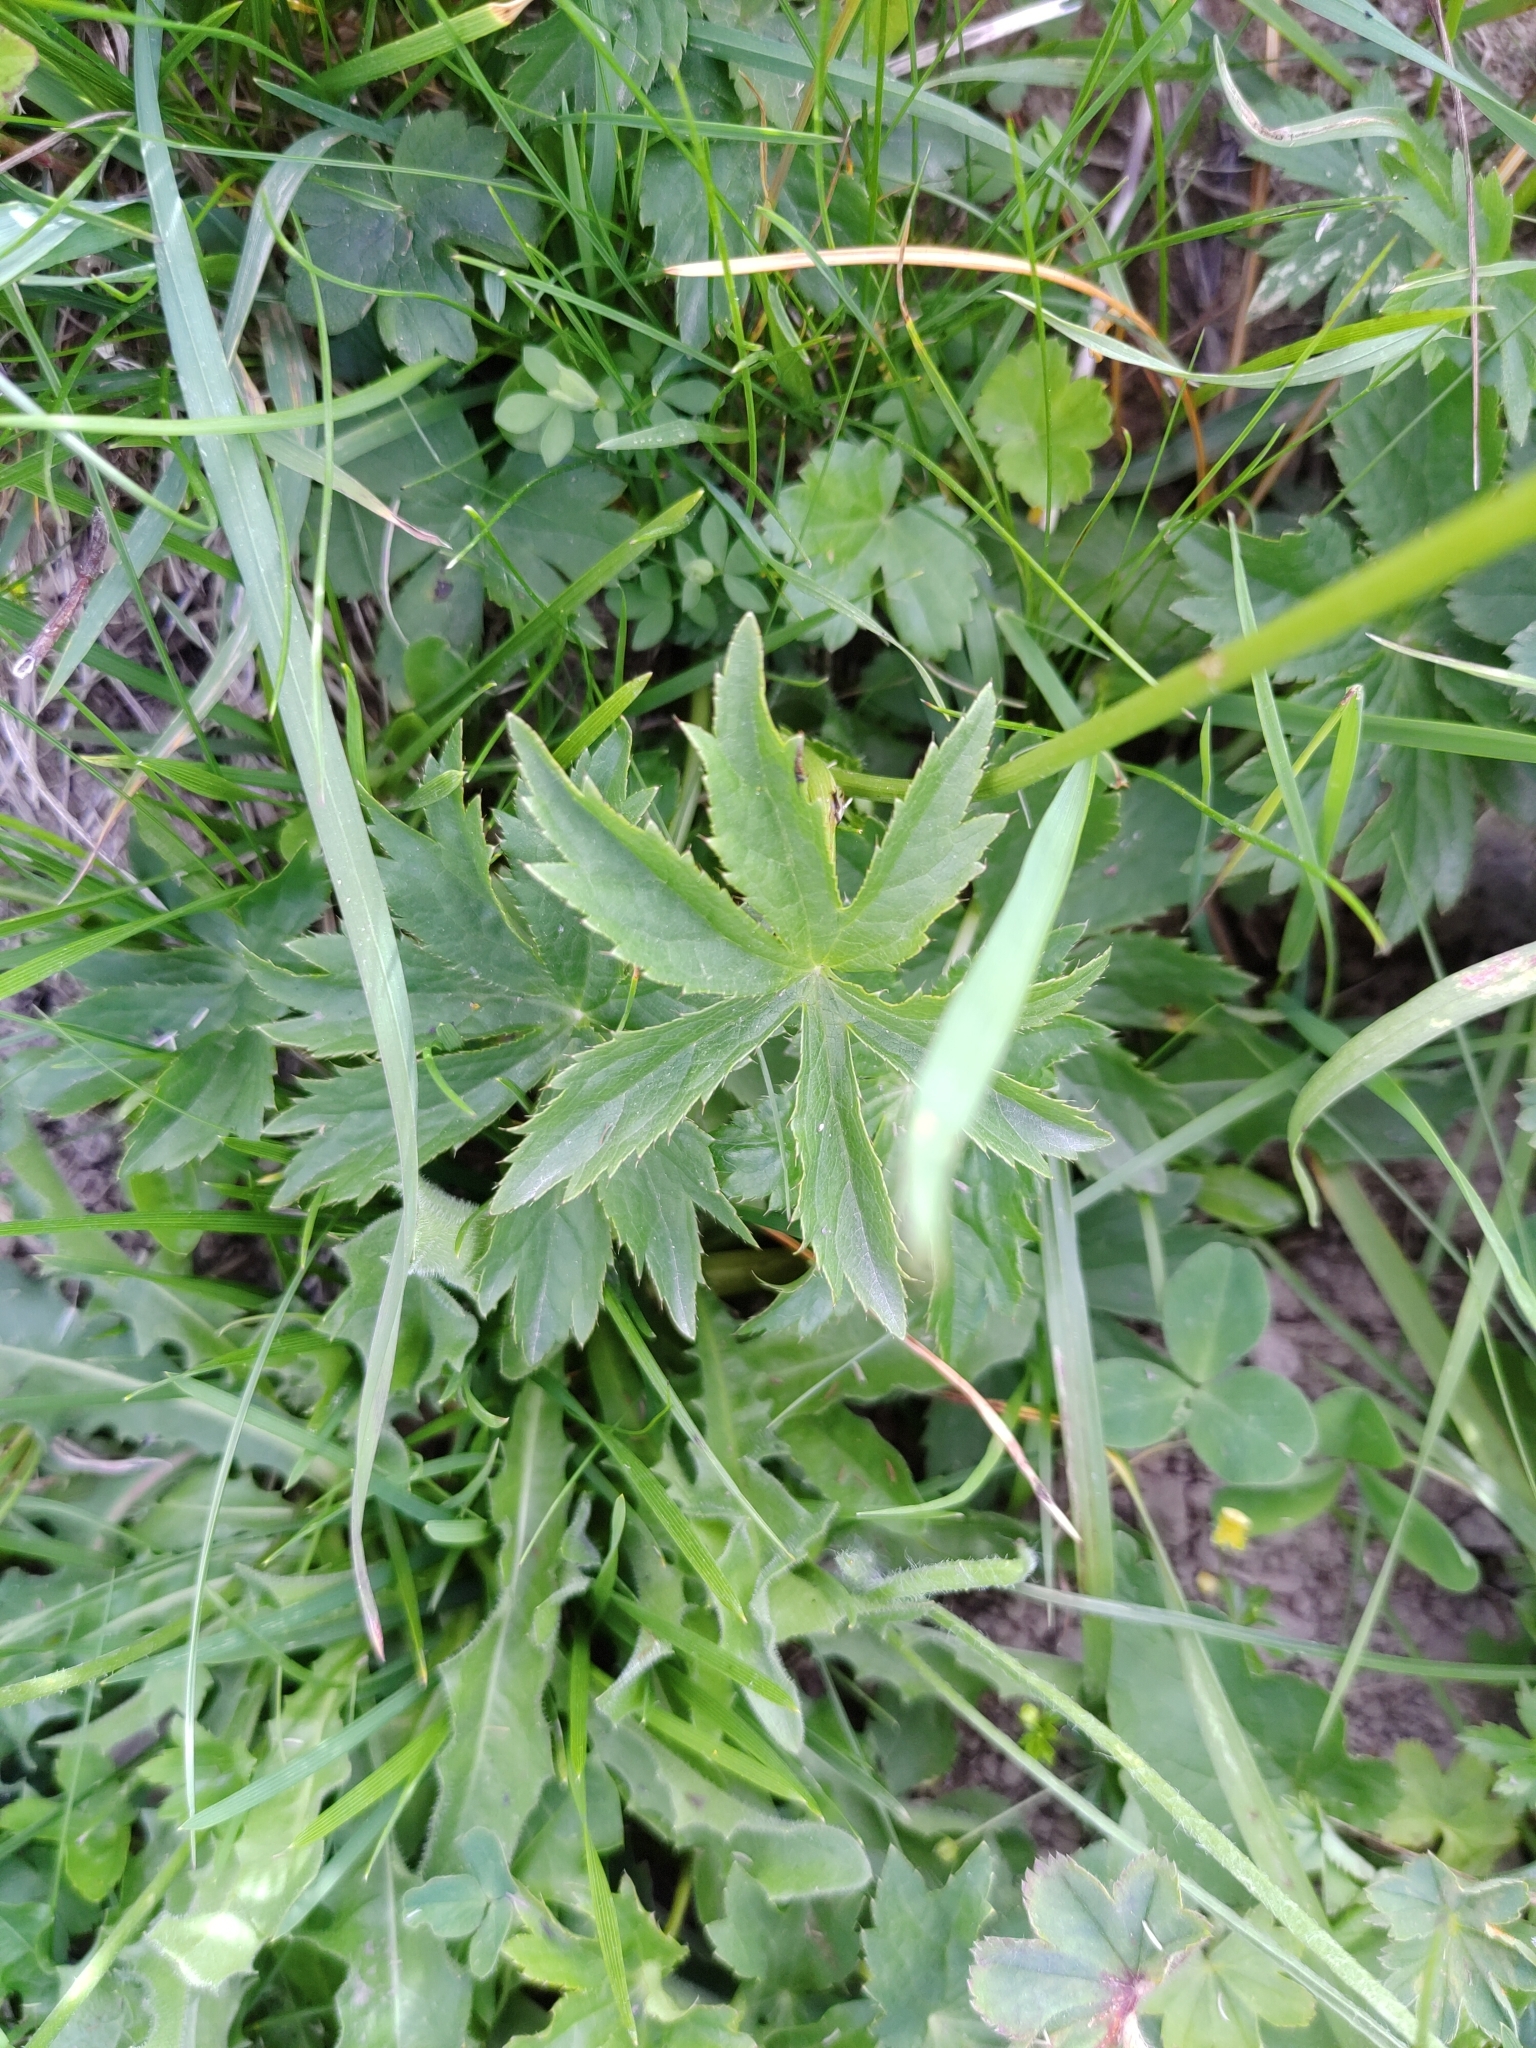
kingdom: Plantae
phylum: Tracheophyta
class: Magnoliopsida
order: Apiales
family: Apiaceae
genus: Astrantia
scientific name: Astrantia major
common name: Greater masterwort
